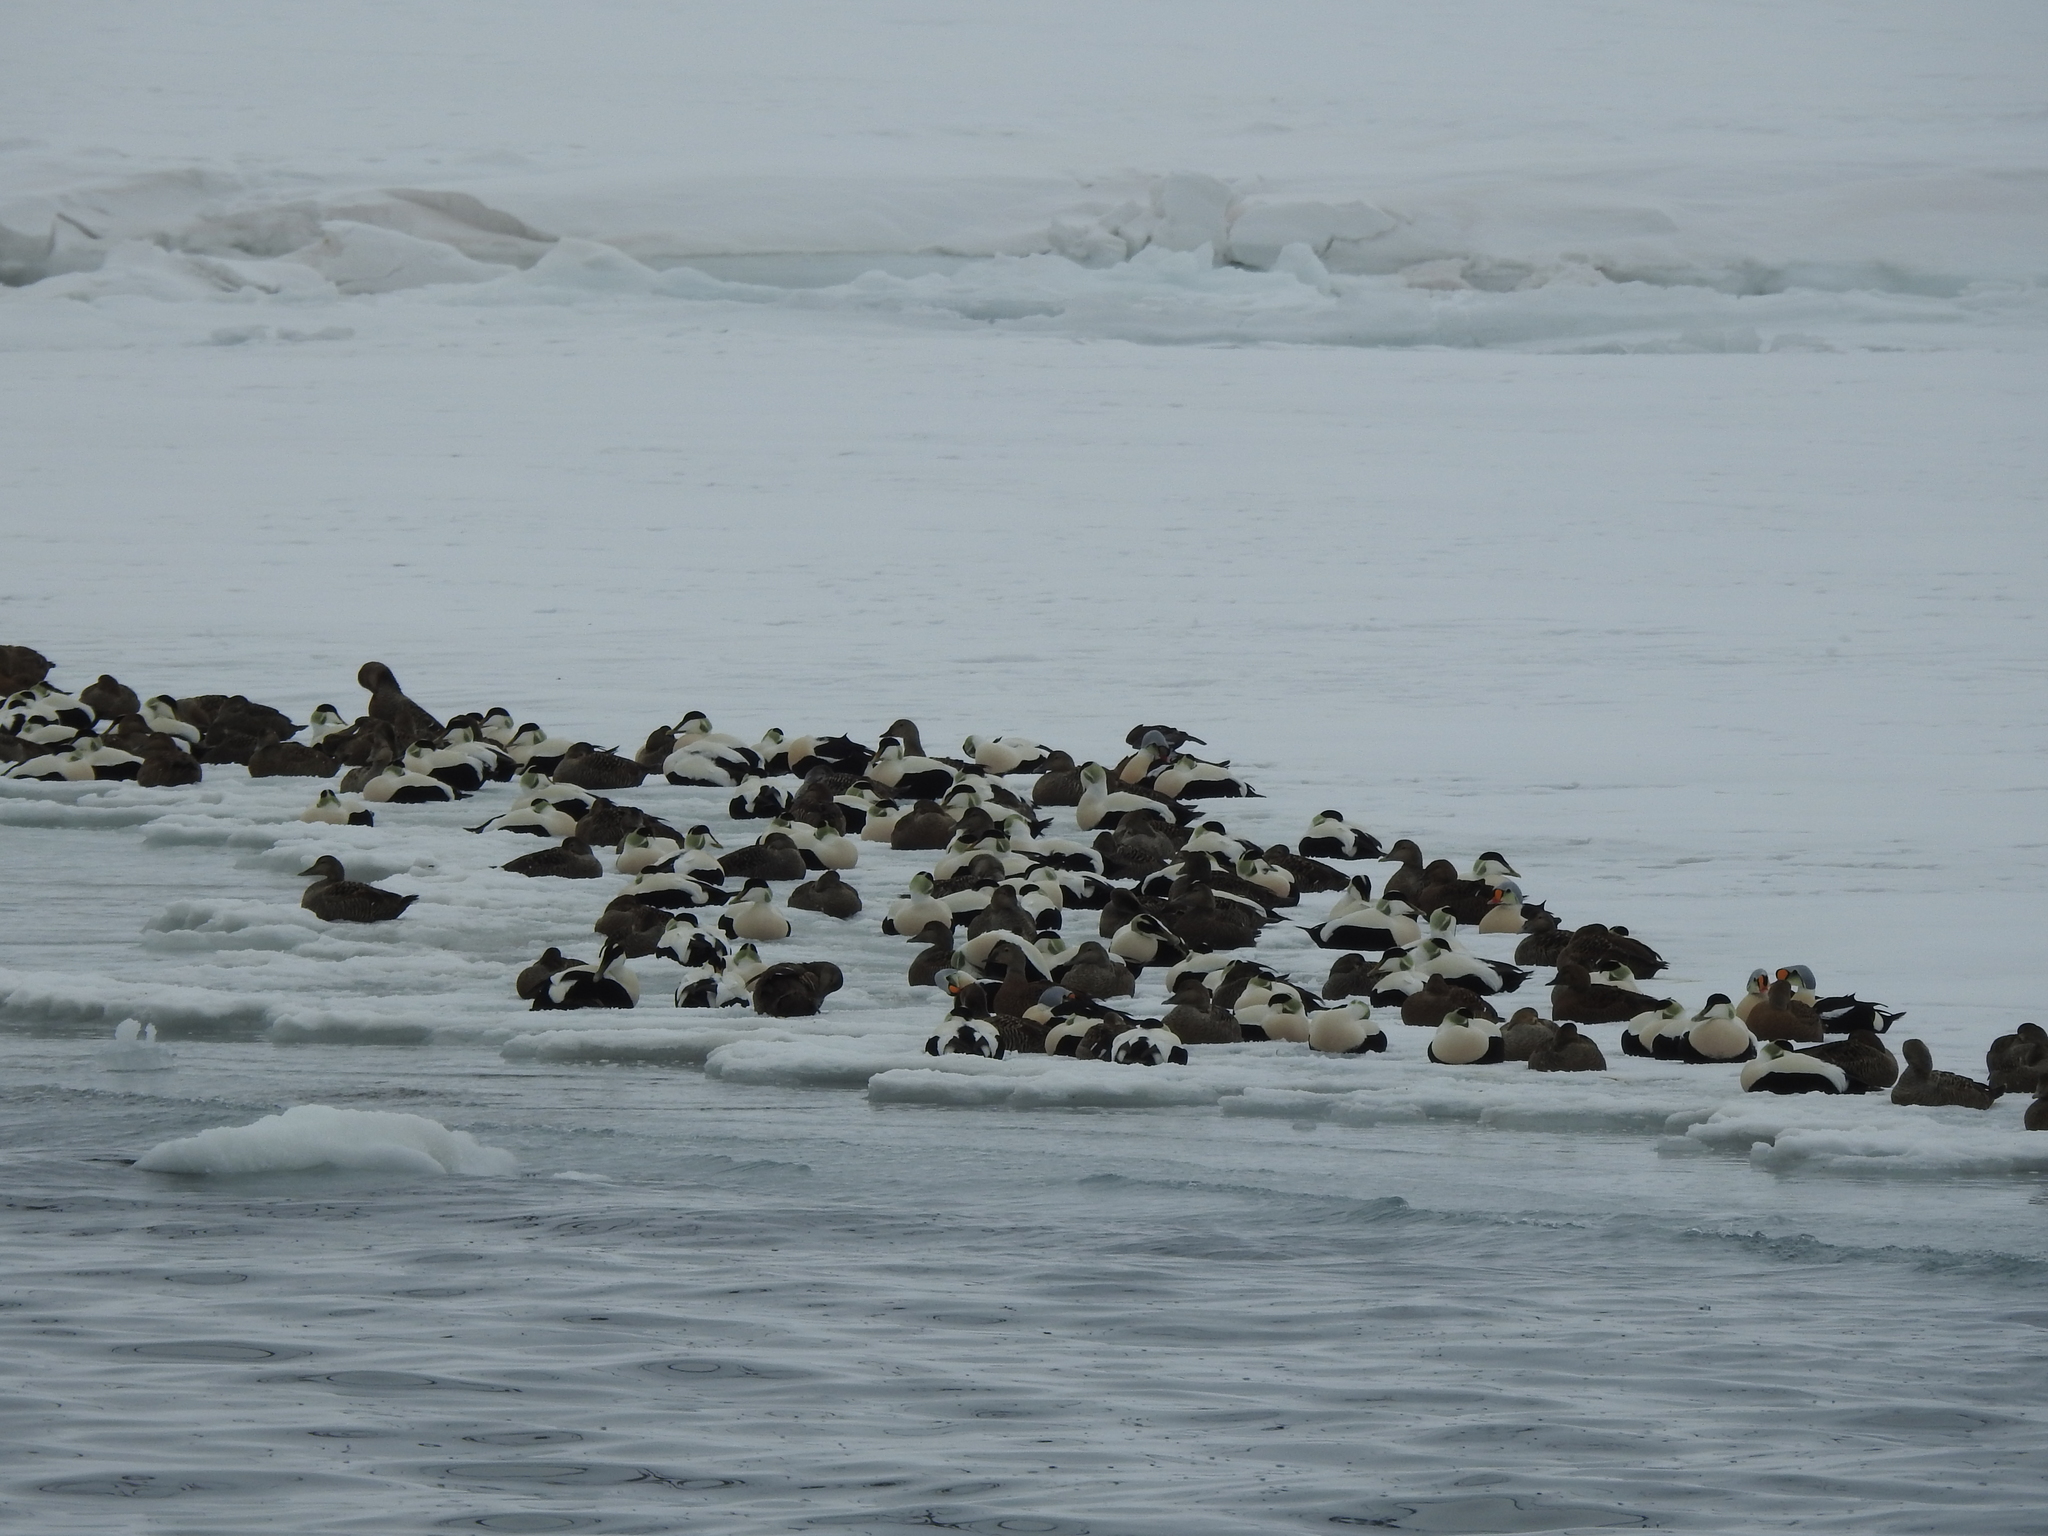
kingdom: Animalia
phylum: Chordata
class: Aves
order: Anseriformes
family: Anatidae
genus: Somateria
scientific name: Somateria spectabilis
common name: King eider
